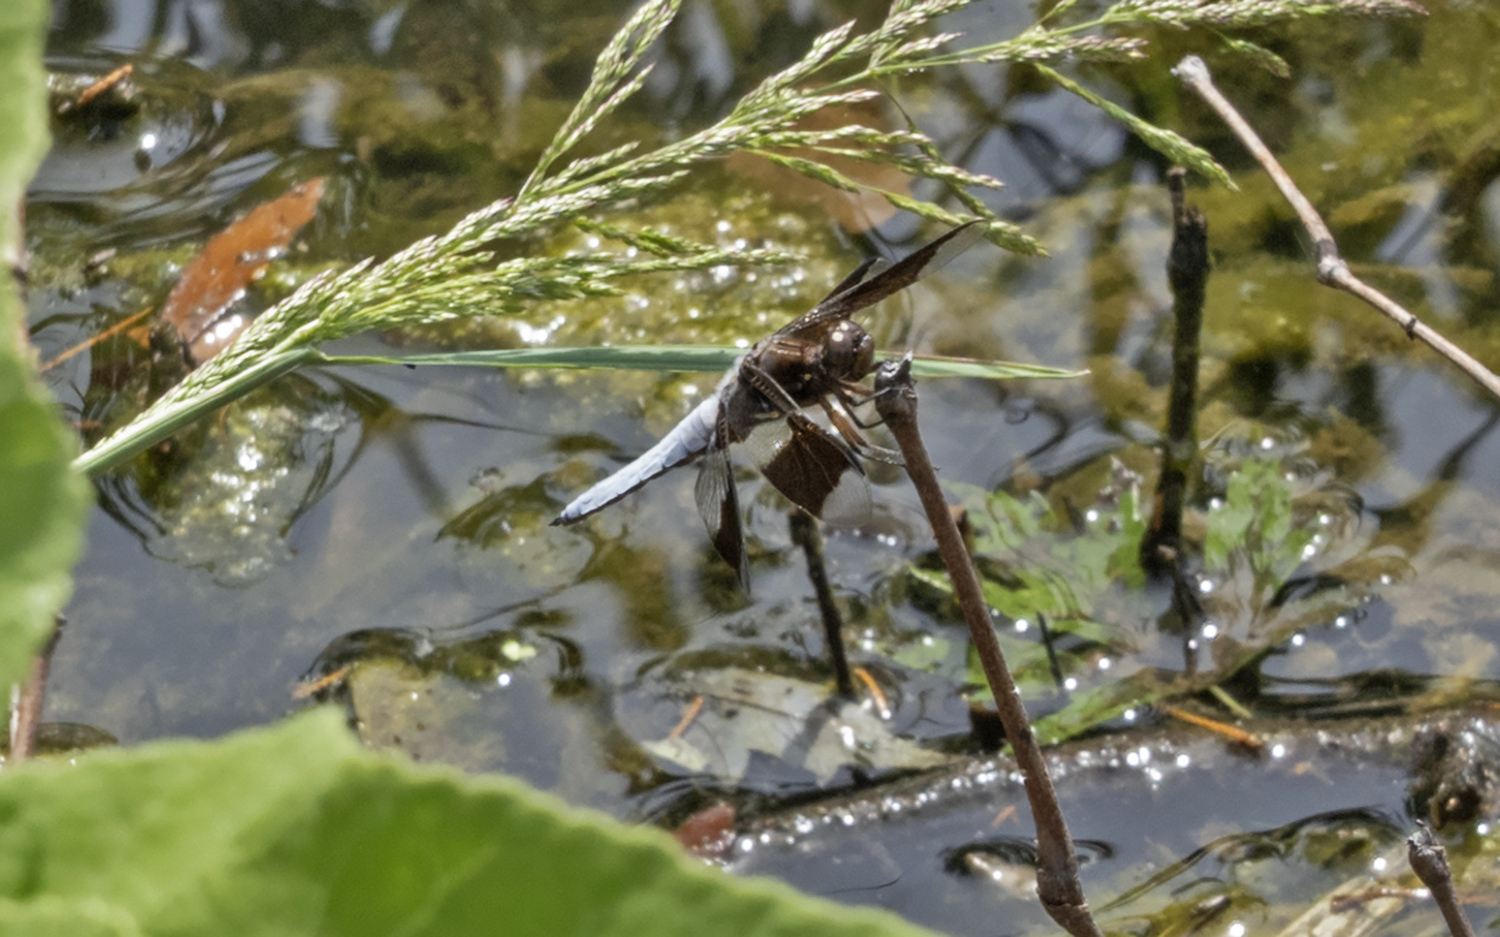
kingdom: Animalia
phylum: Arthropoda
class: Insecta
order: Odonata
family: Libellulidae
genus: Plathemis
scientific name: Plathemis lydia
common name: Common whitetail
